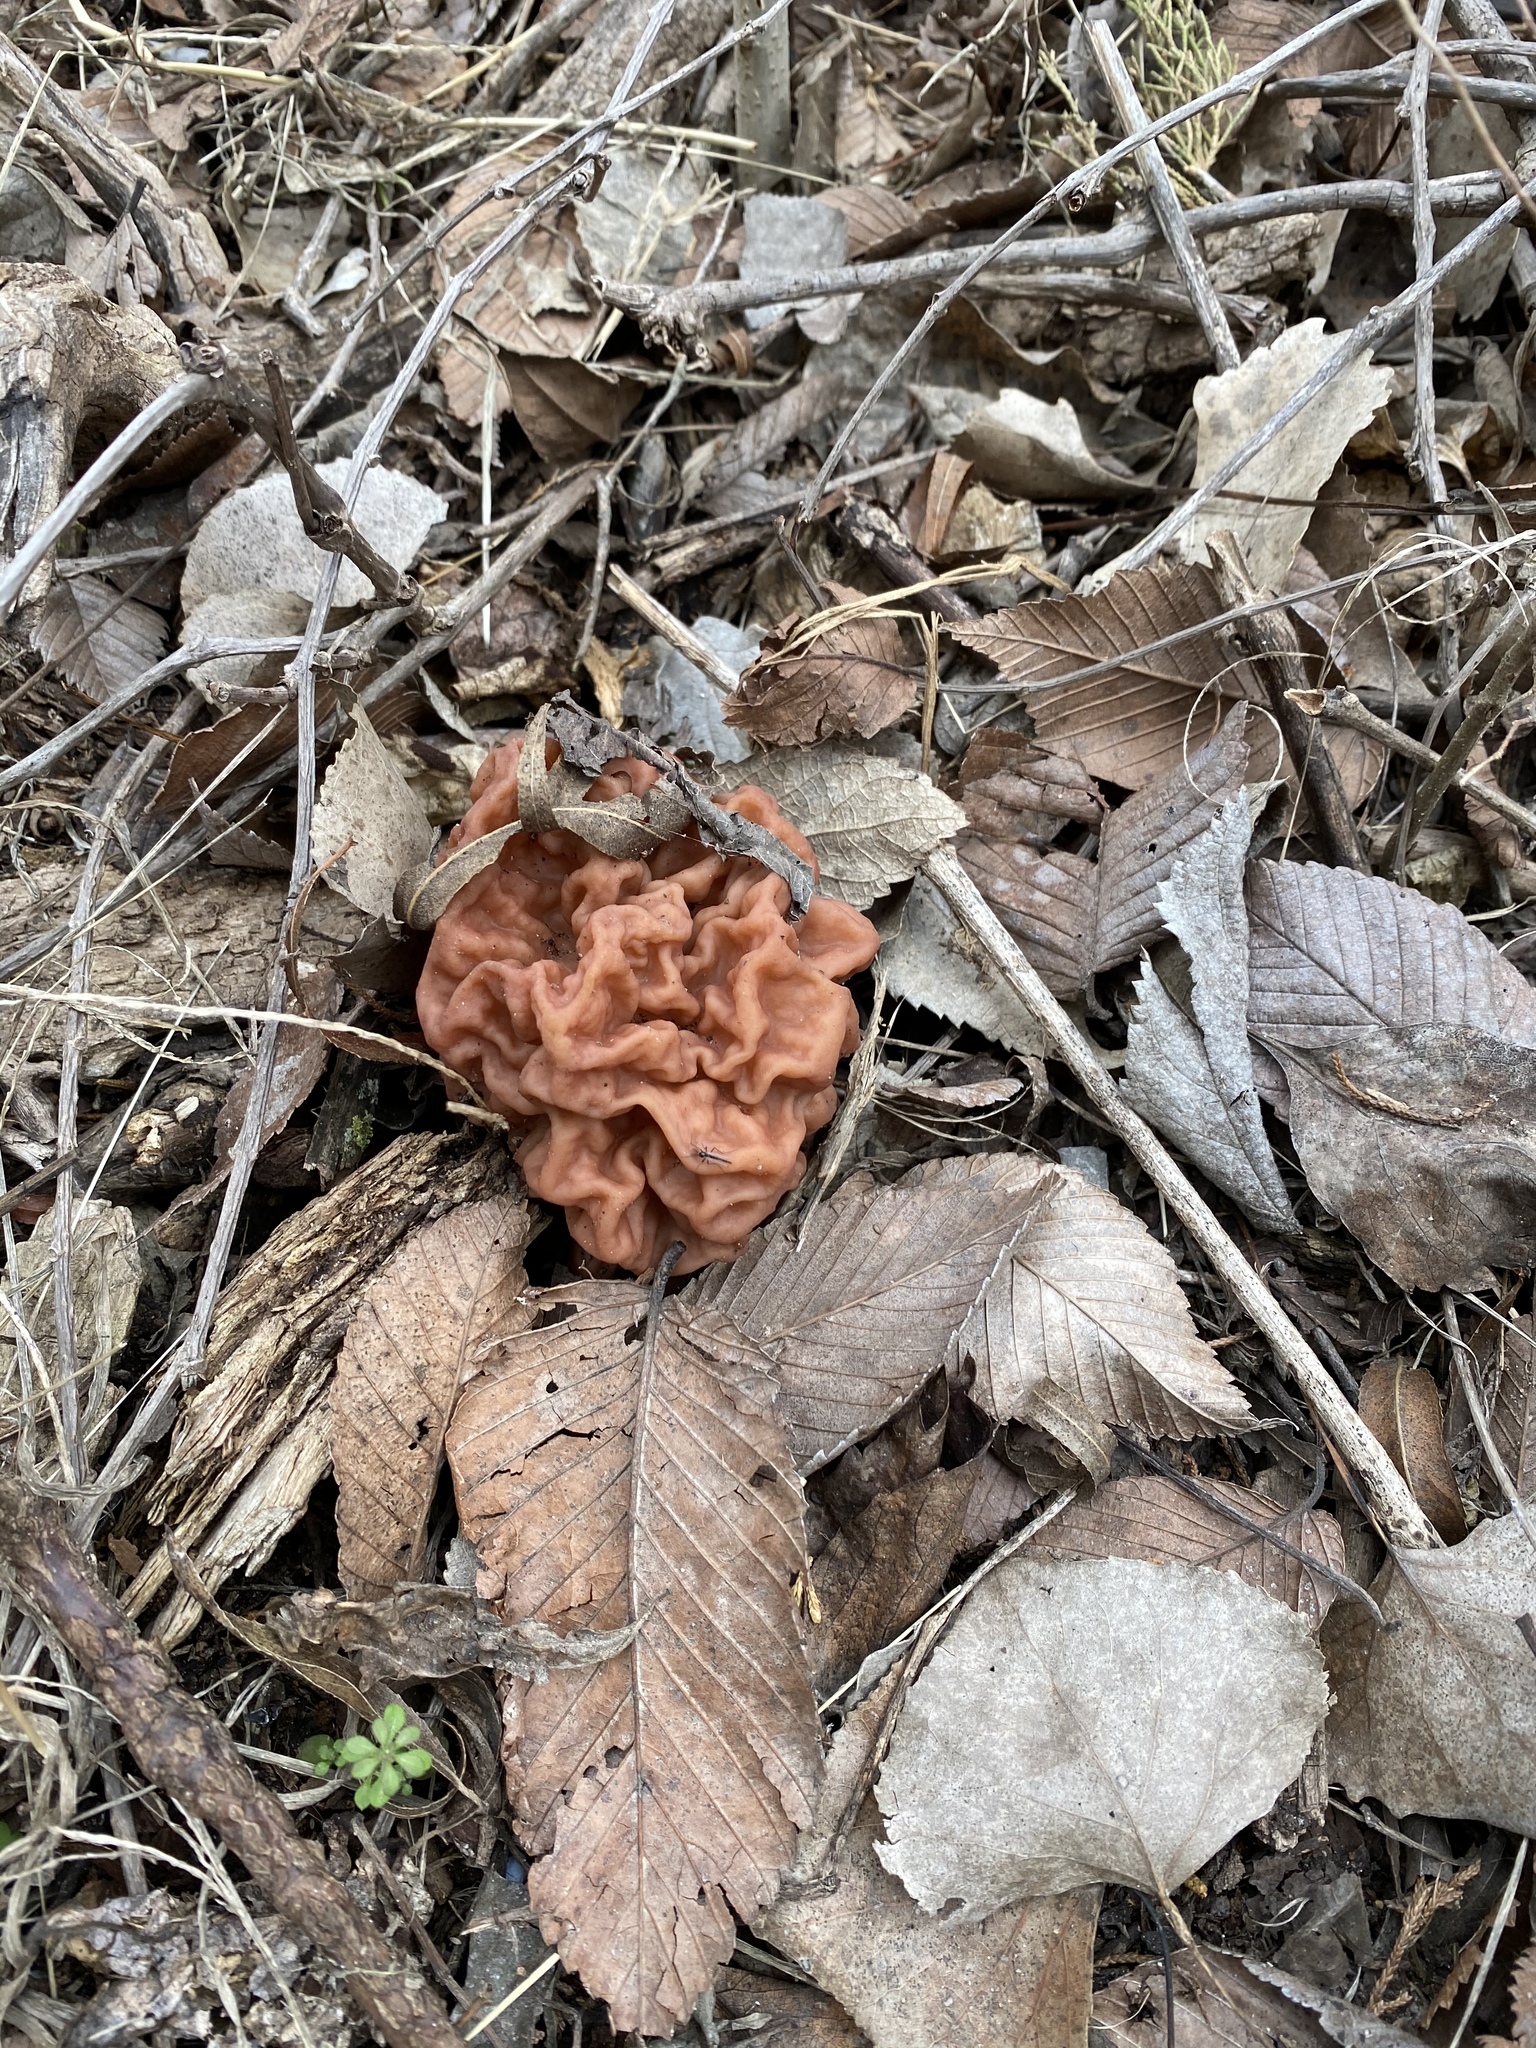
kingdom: Fungi
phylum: Ascomycota
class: Pezizomycetes
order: Pezizales
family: Discinaceae
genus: Discina
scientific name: Discina caroliniana
